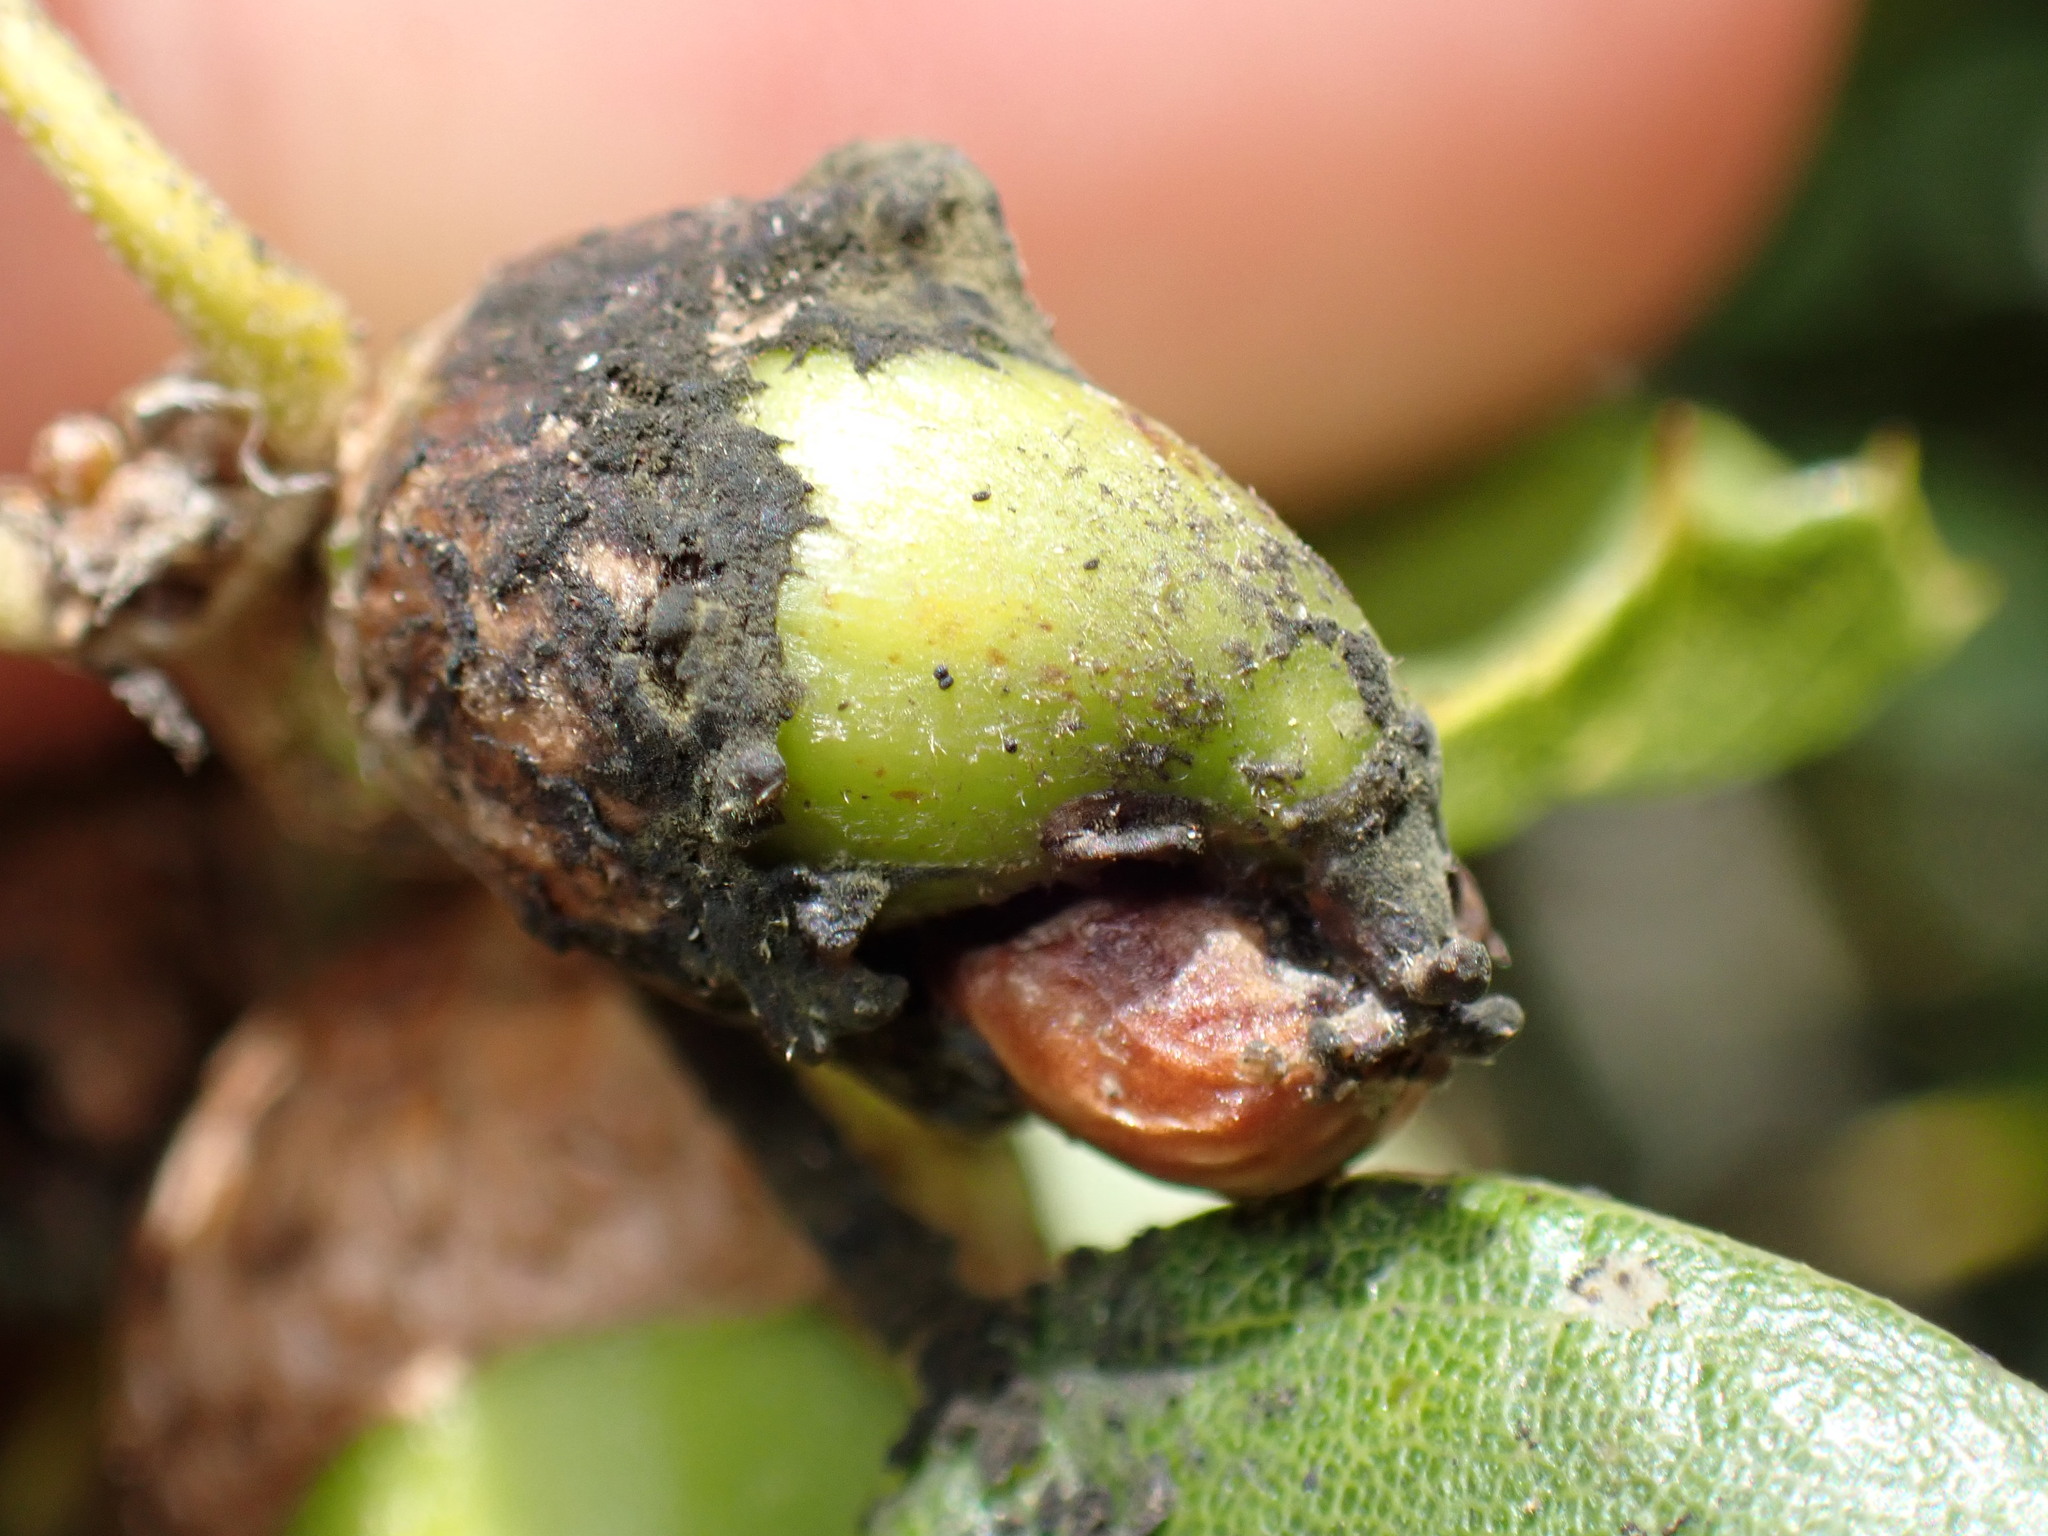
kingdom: Animalia
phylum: Arthropoda
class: Insecta
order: Hymenoptera
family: Cynipidae
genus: Callirhytis
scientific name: Callirhytis
